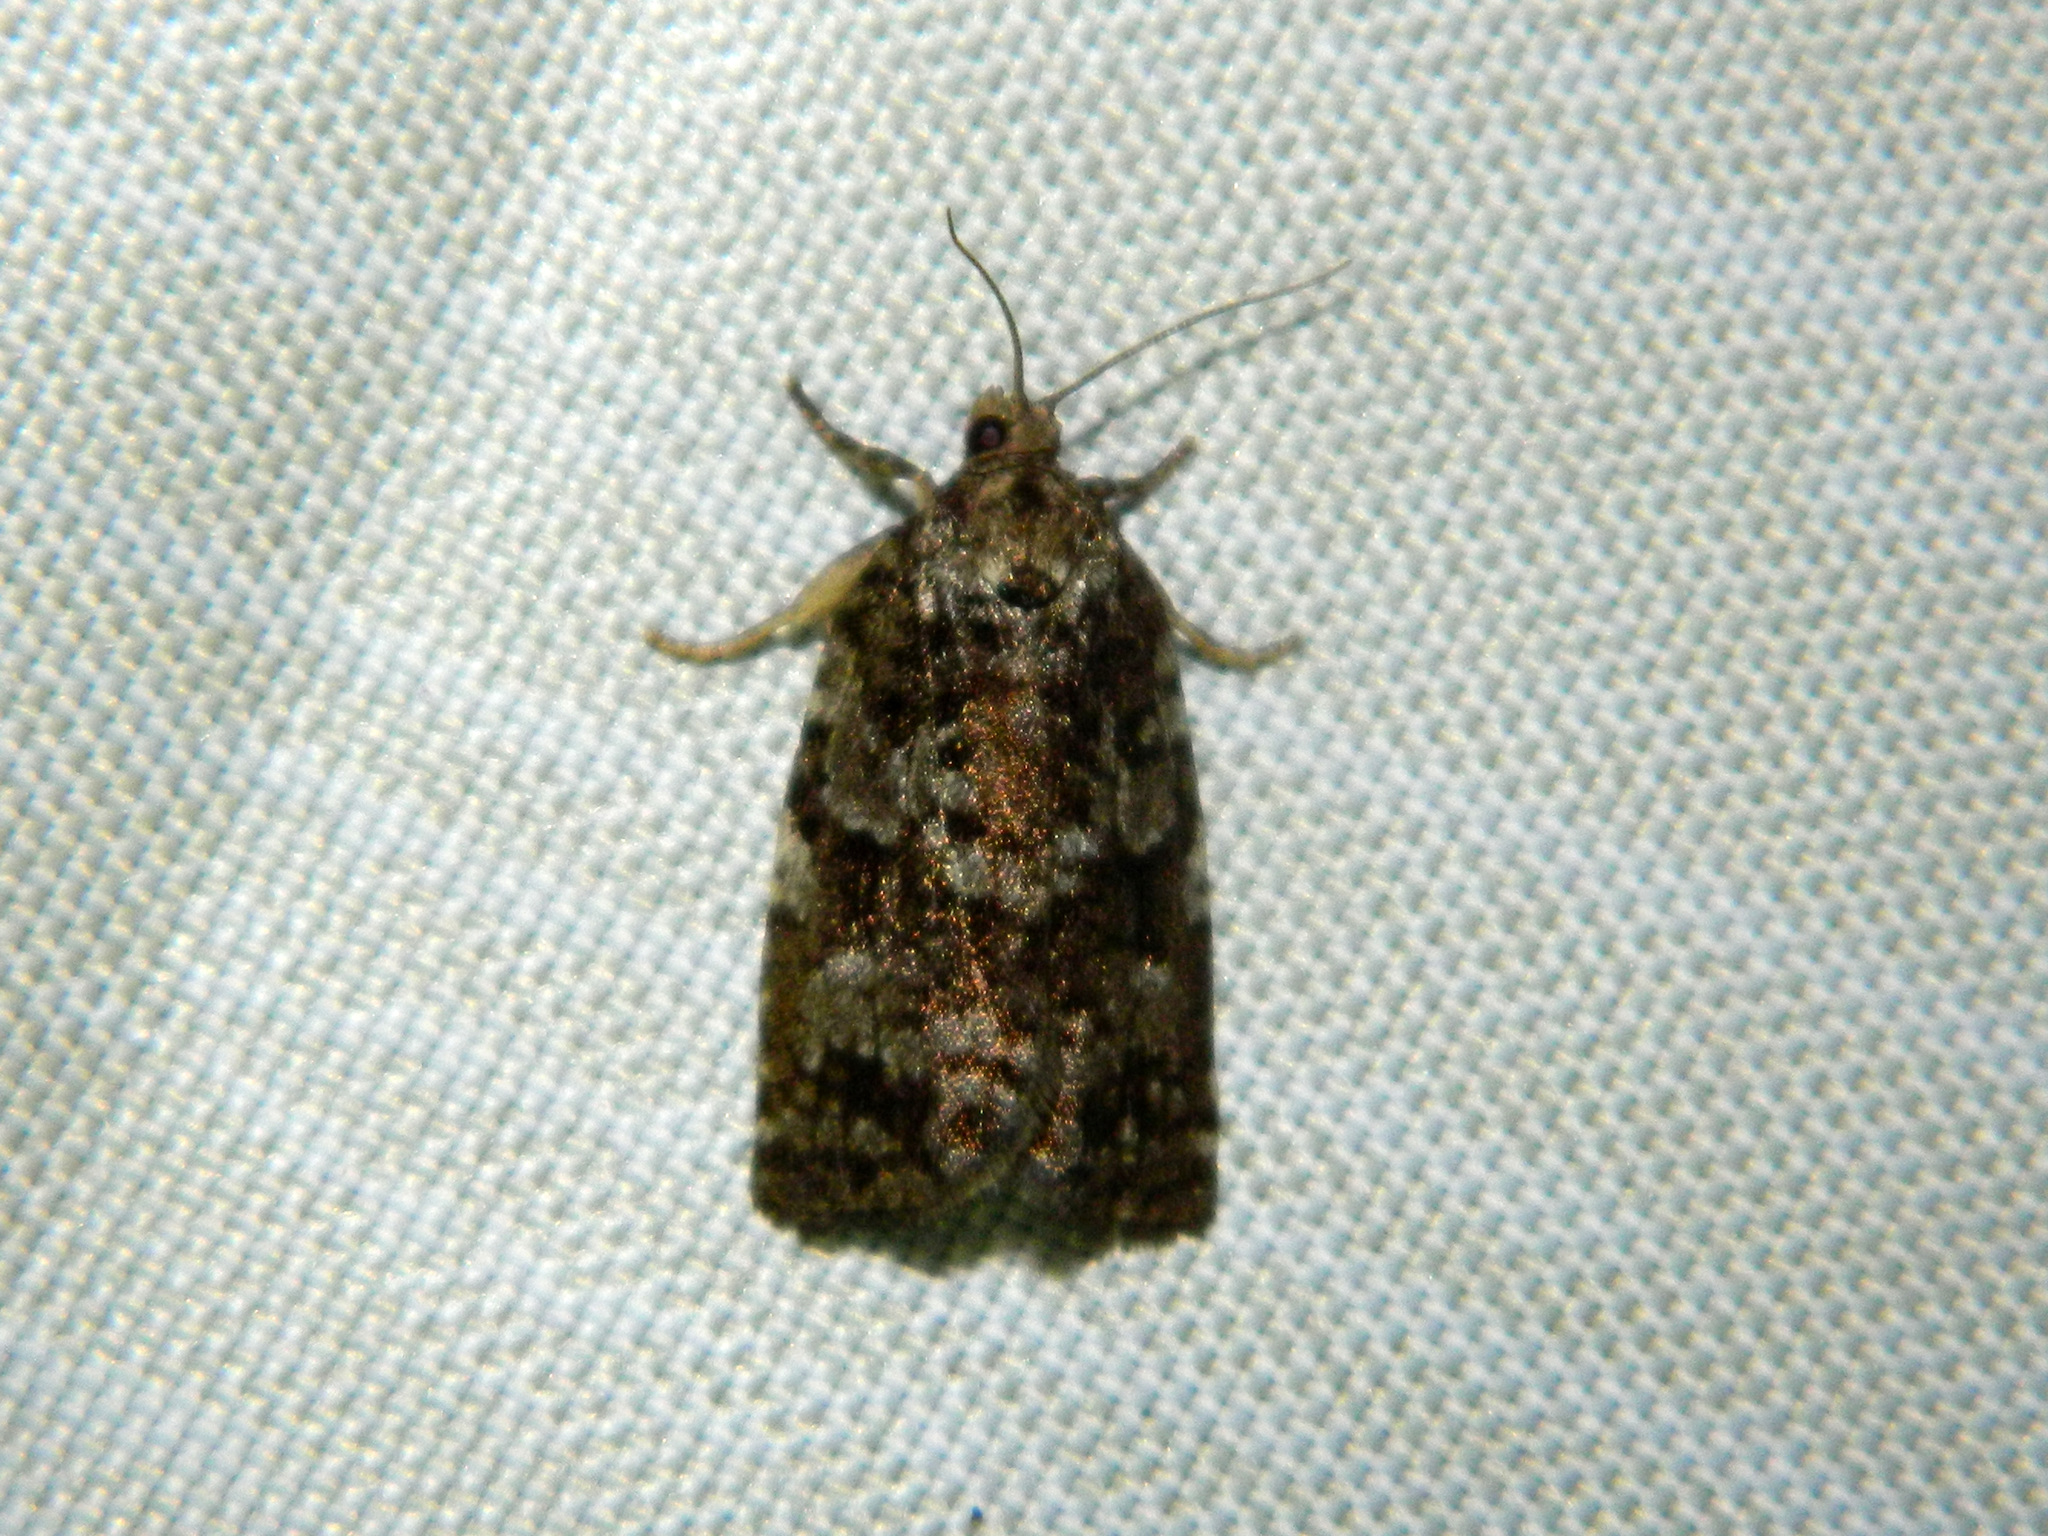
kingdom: Animalia
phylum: Arthropoda
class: Insecta
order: Lepidoptera
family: Tortricidae
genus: Choristoneura
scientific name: Choristoneura fumiferana
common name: Spruce budworm
